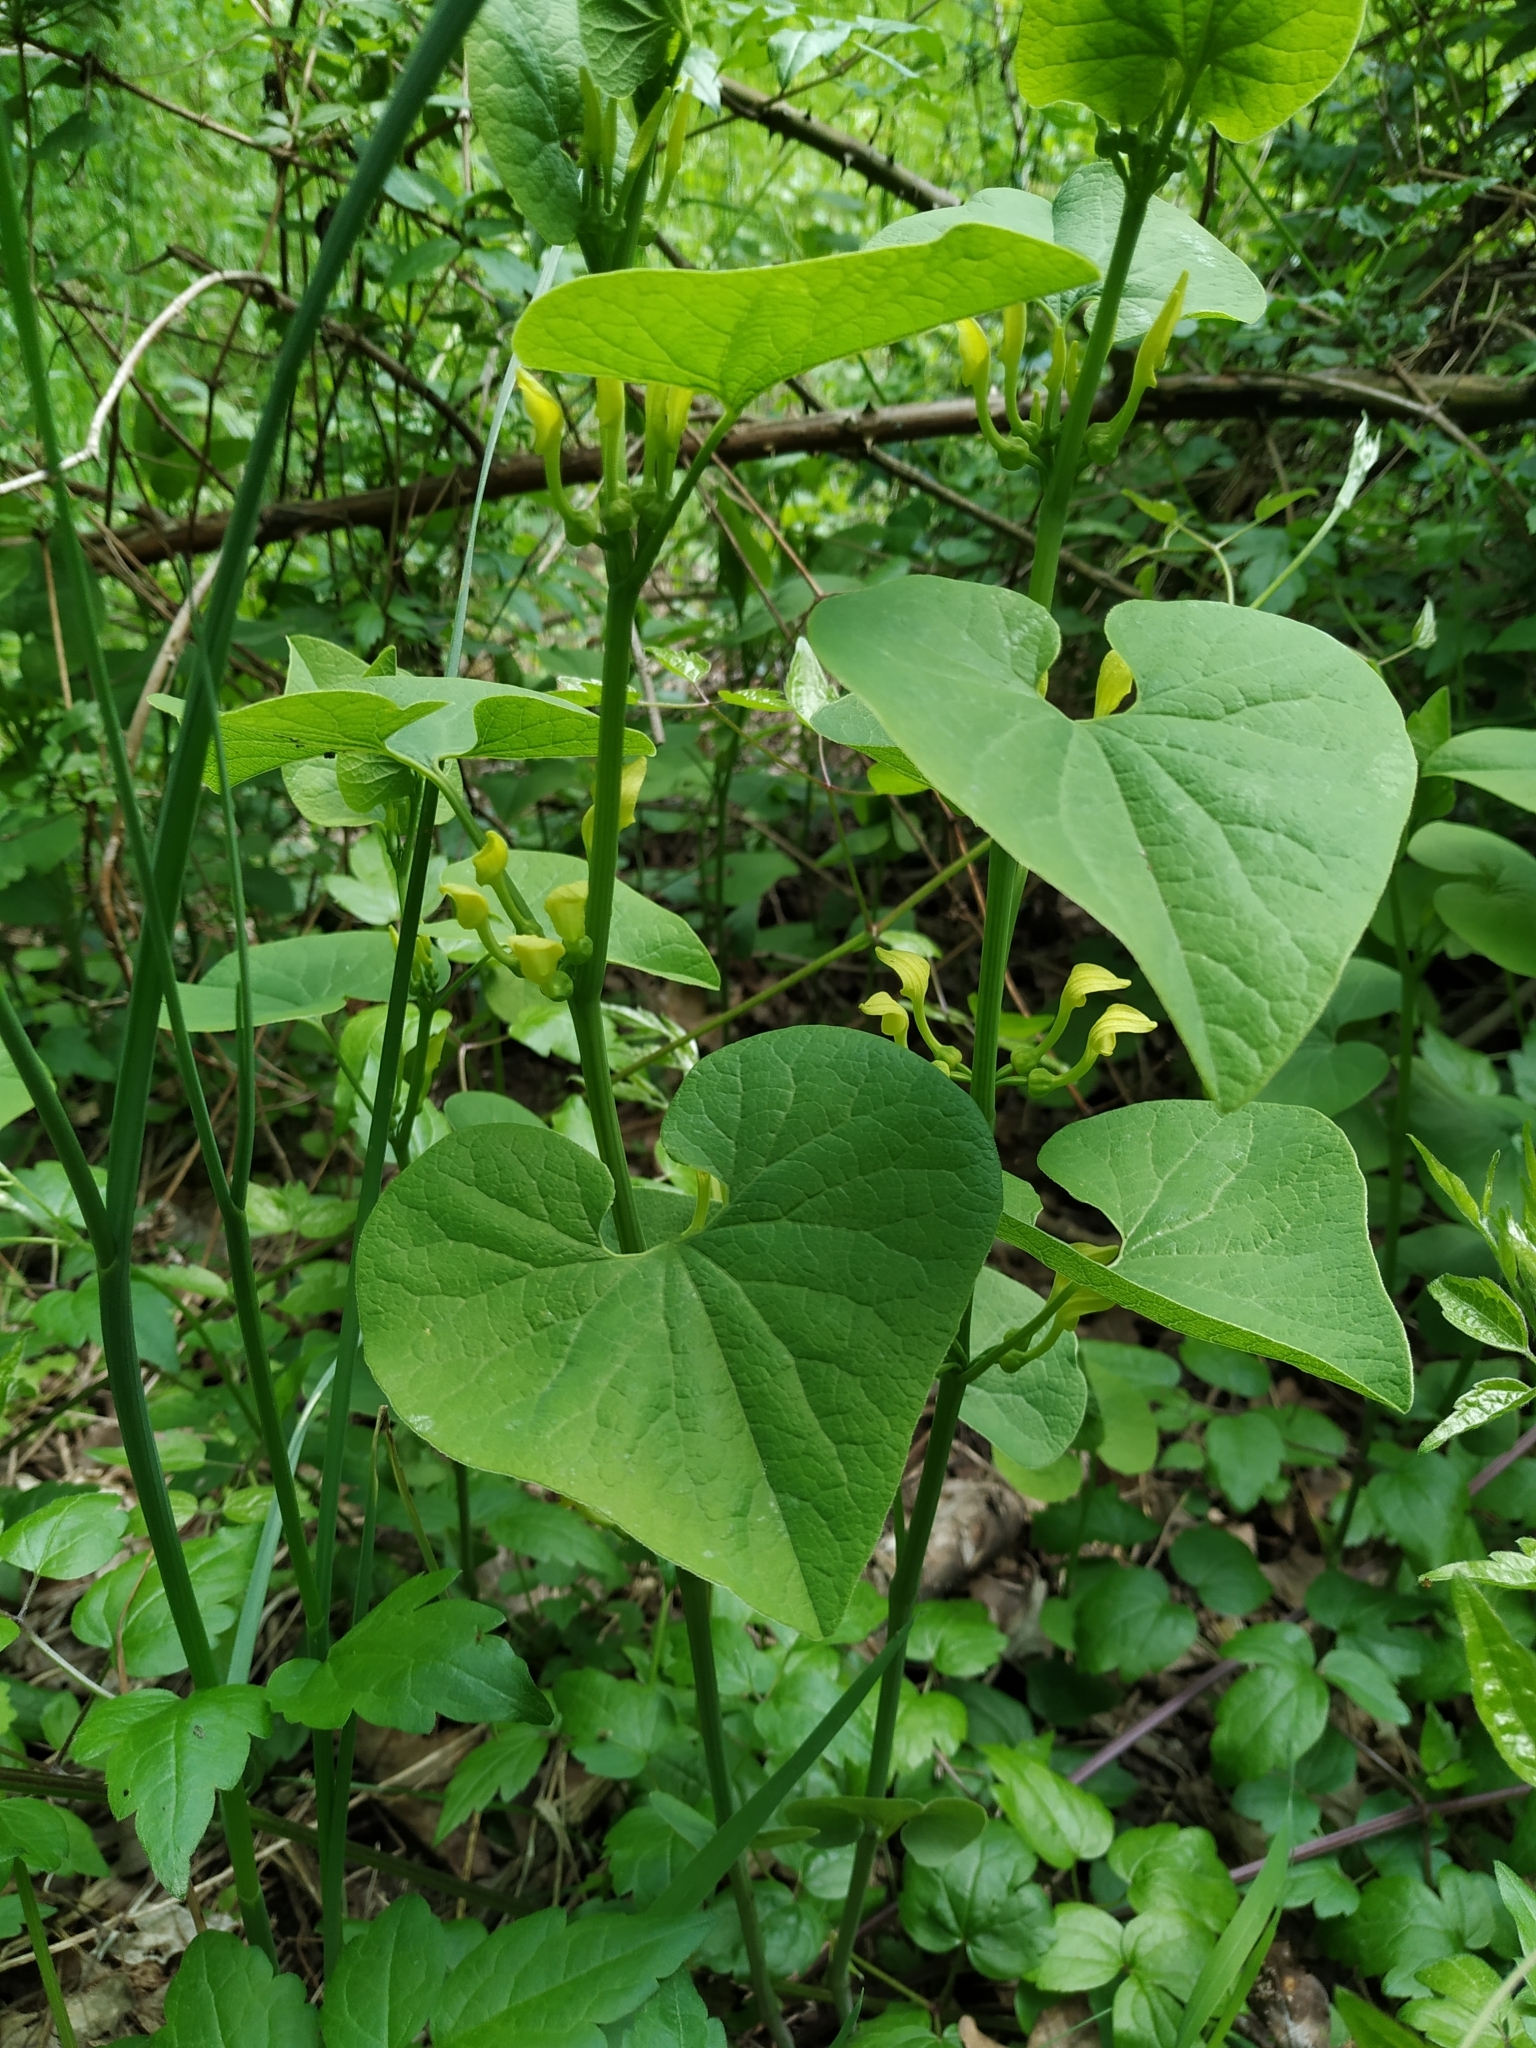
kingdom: Plantae
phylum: Tracheophyta
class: Magnoliopsida
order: Piperales
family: Aristolochiaceae
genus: Aristolochia
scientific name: Aristolochia clematitis
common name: Birthwort
